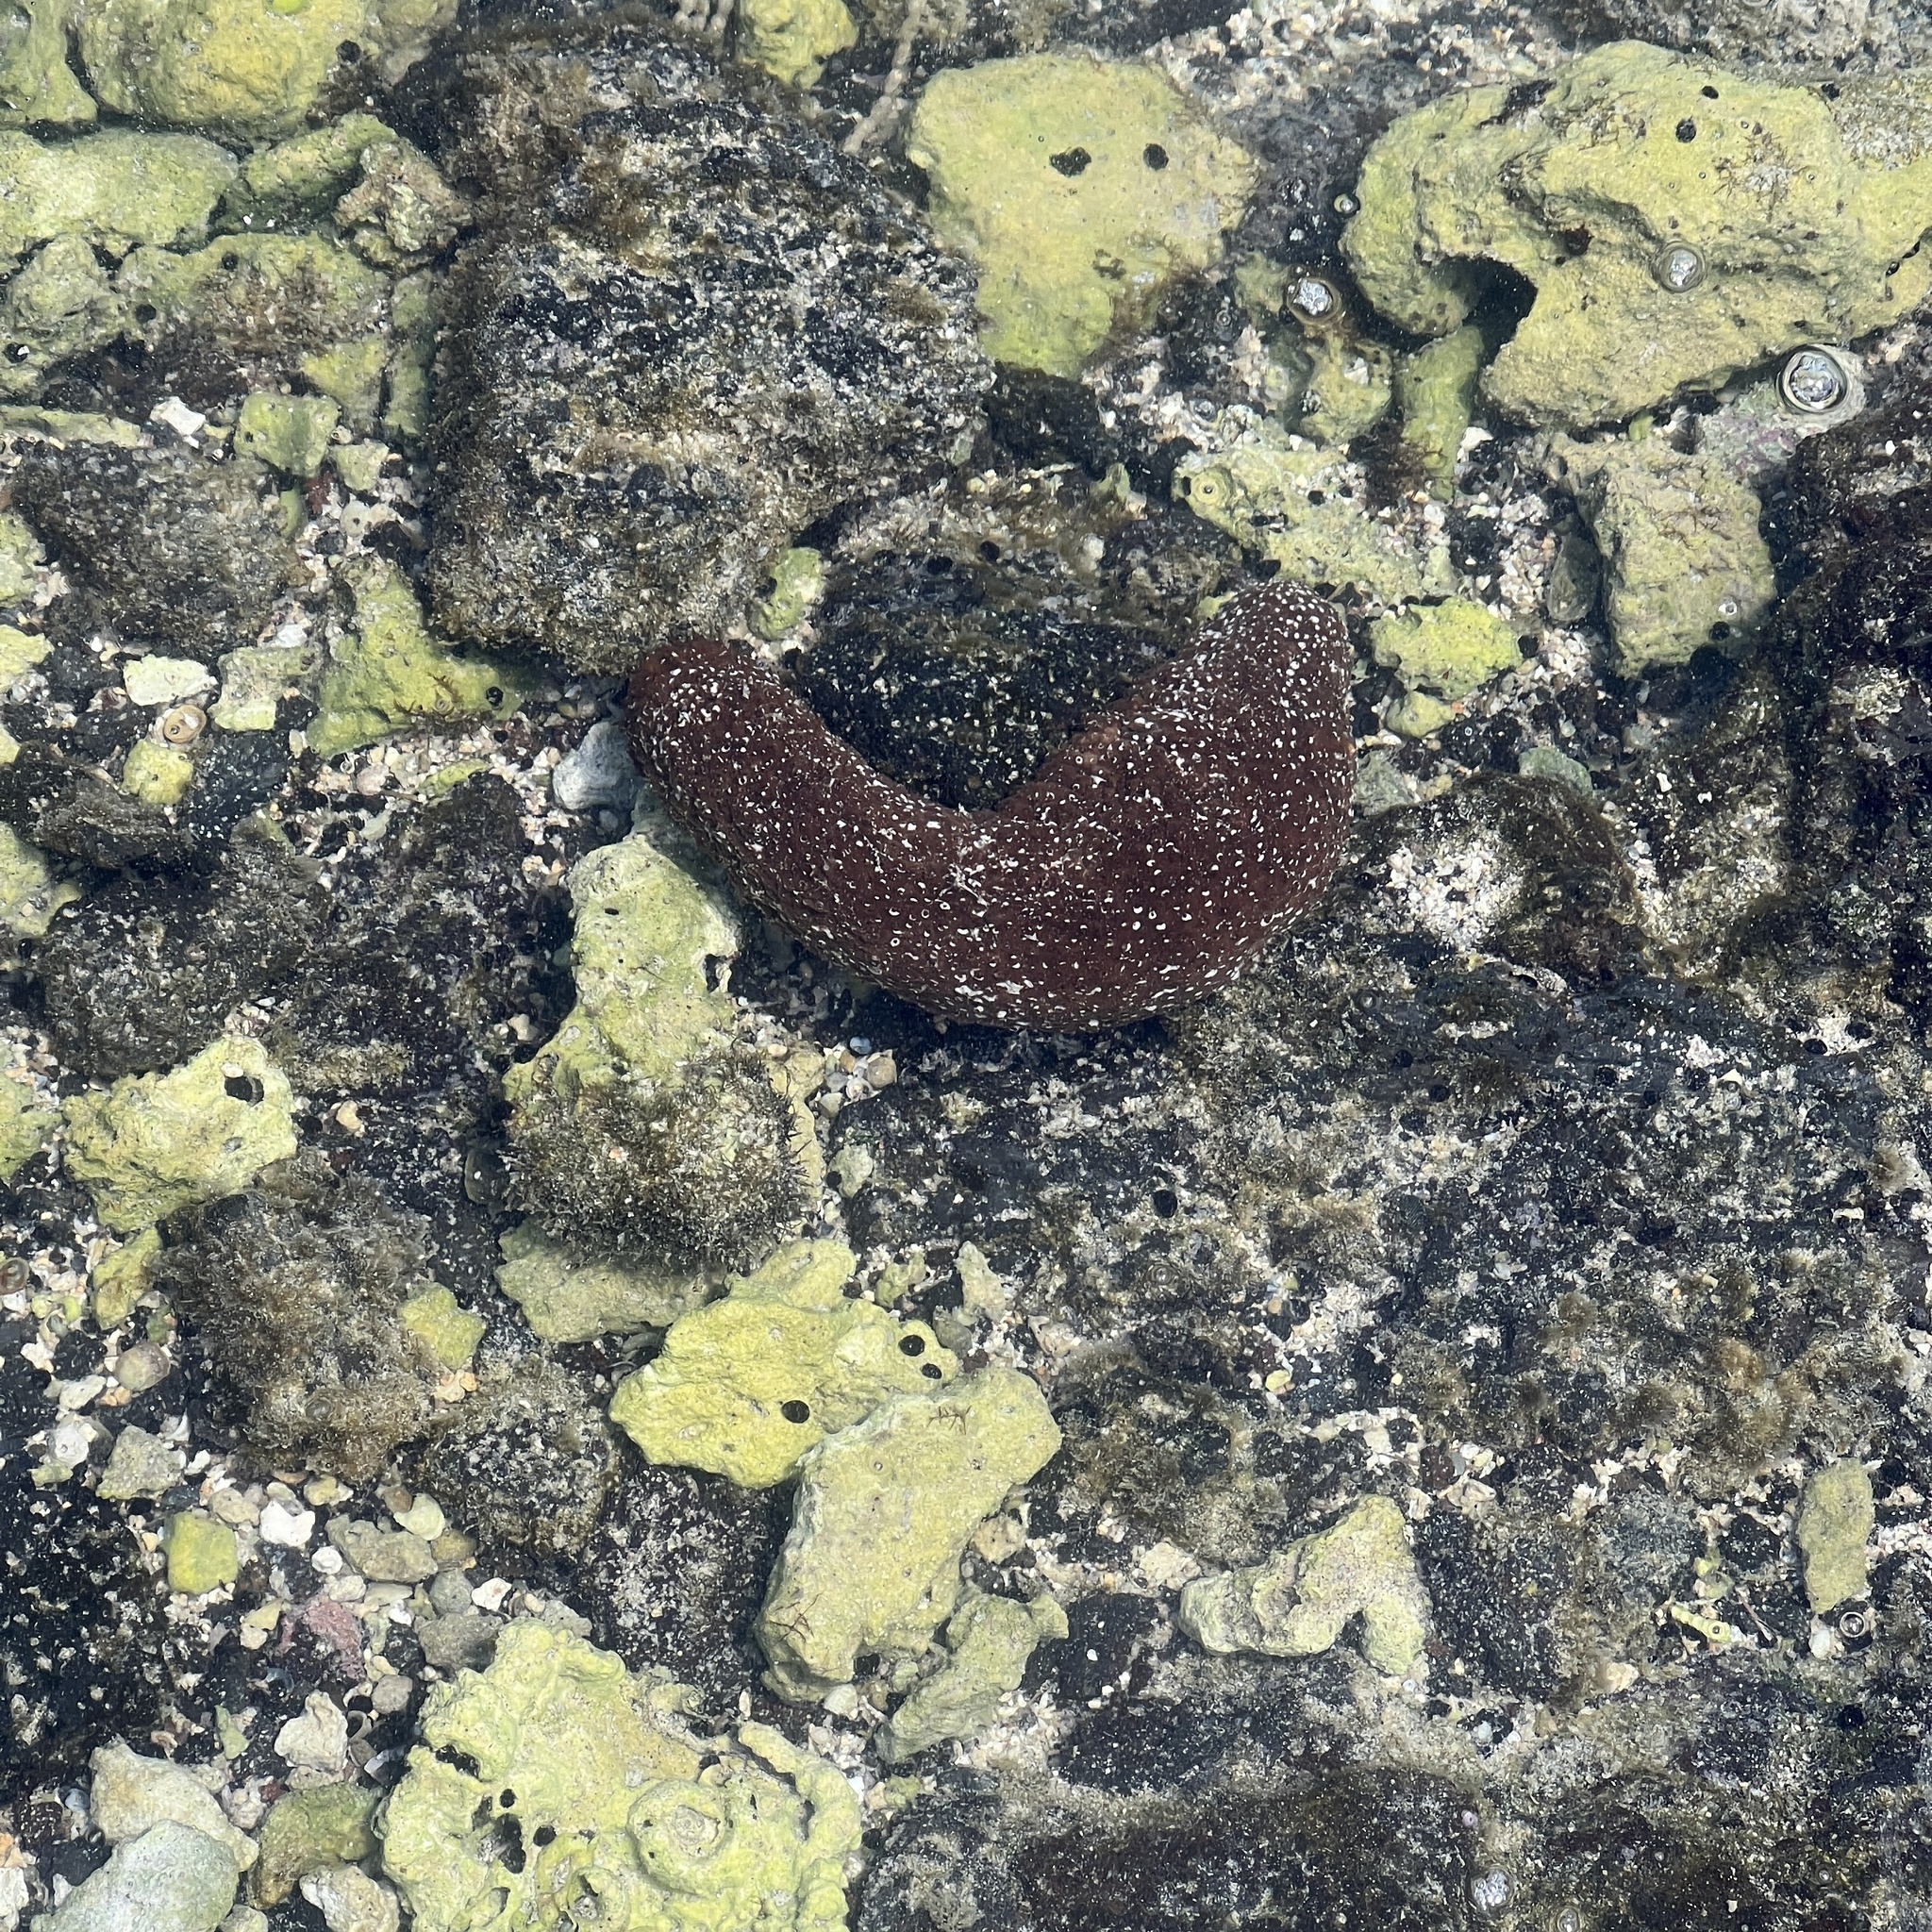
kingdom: Animalia
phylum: Echinodermata
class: Holothuroidea
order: Holothuriida
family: Holothuriidae
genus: Actinopyga
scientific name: Actinopyga varians
